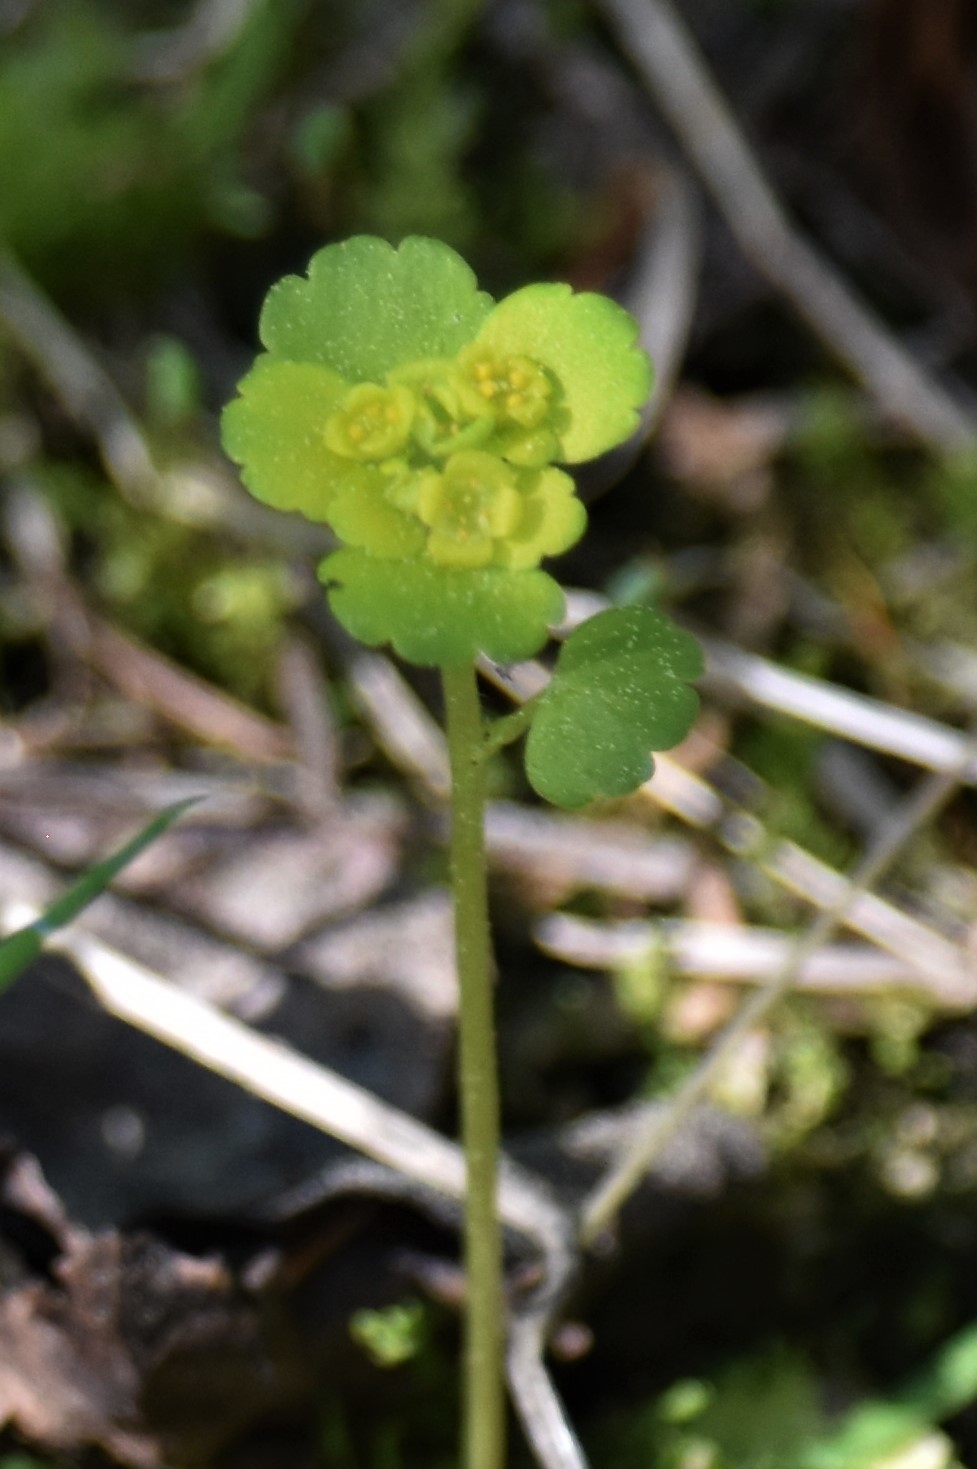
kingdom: Plantae
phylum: Tracheophyta
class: Magnoliopsida
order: Saxifragales
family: Saxifragaceae
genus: Chrysosplenium
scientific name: Chrysosplenium tetrandrum
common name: Green saxifrage
